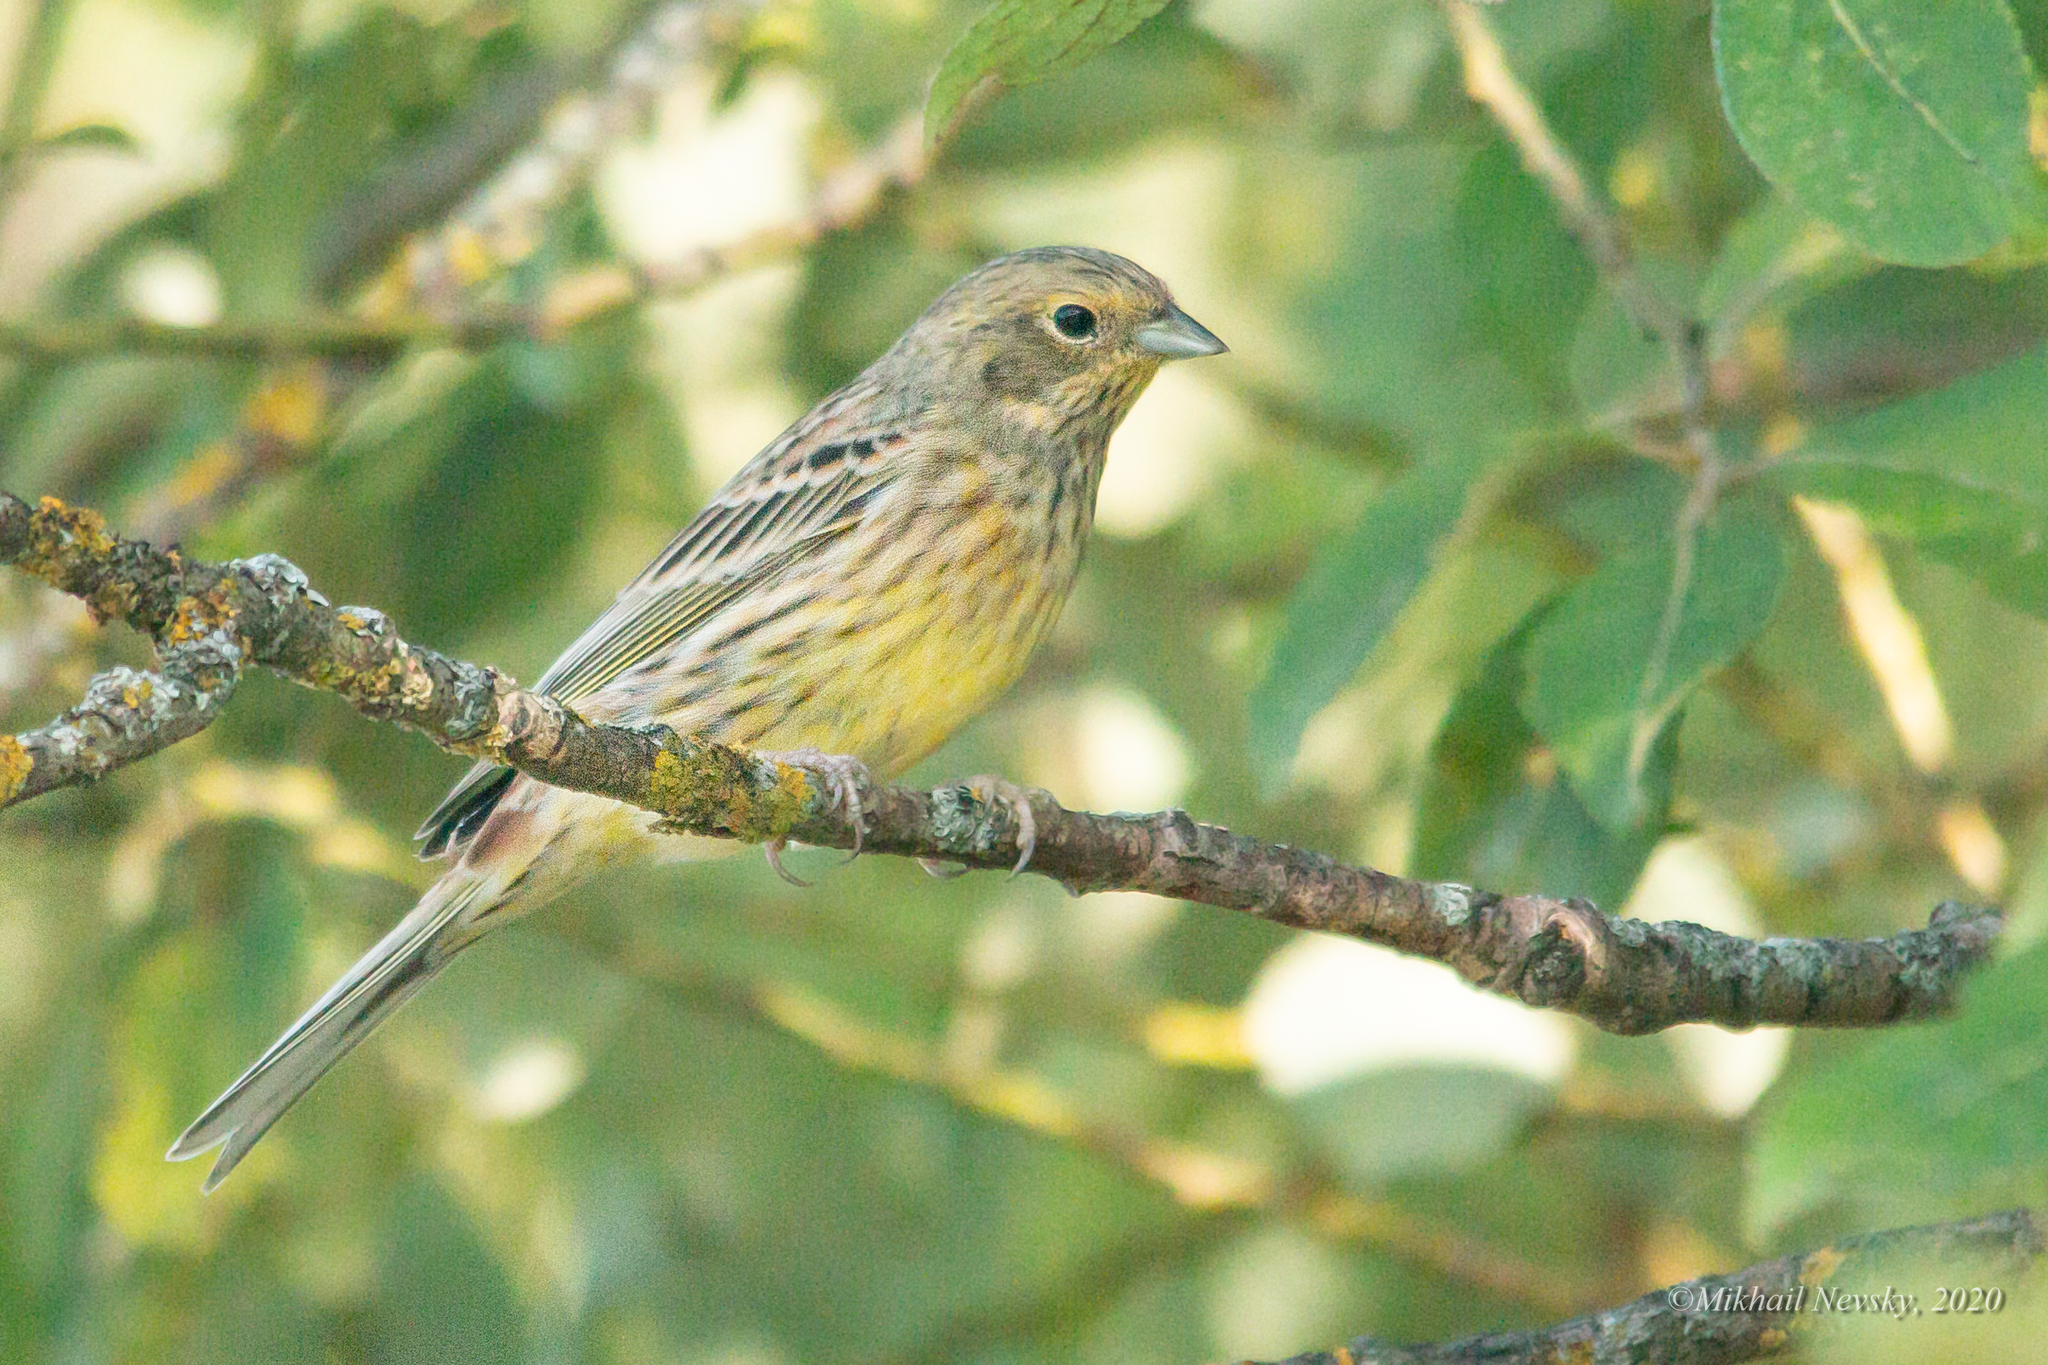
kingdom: Animalia
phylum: Chordata
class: Aves
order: Passeriformes
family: Emberizidae
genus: Emberiza
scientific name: Emberiza citrinella
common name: Yellowhammer
